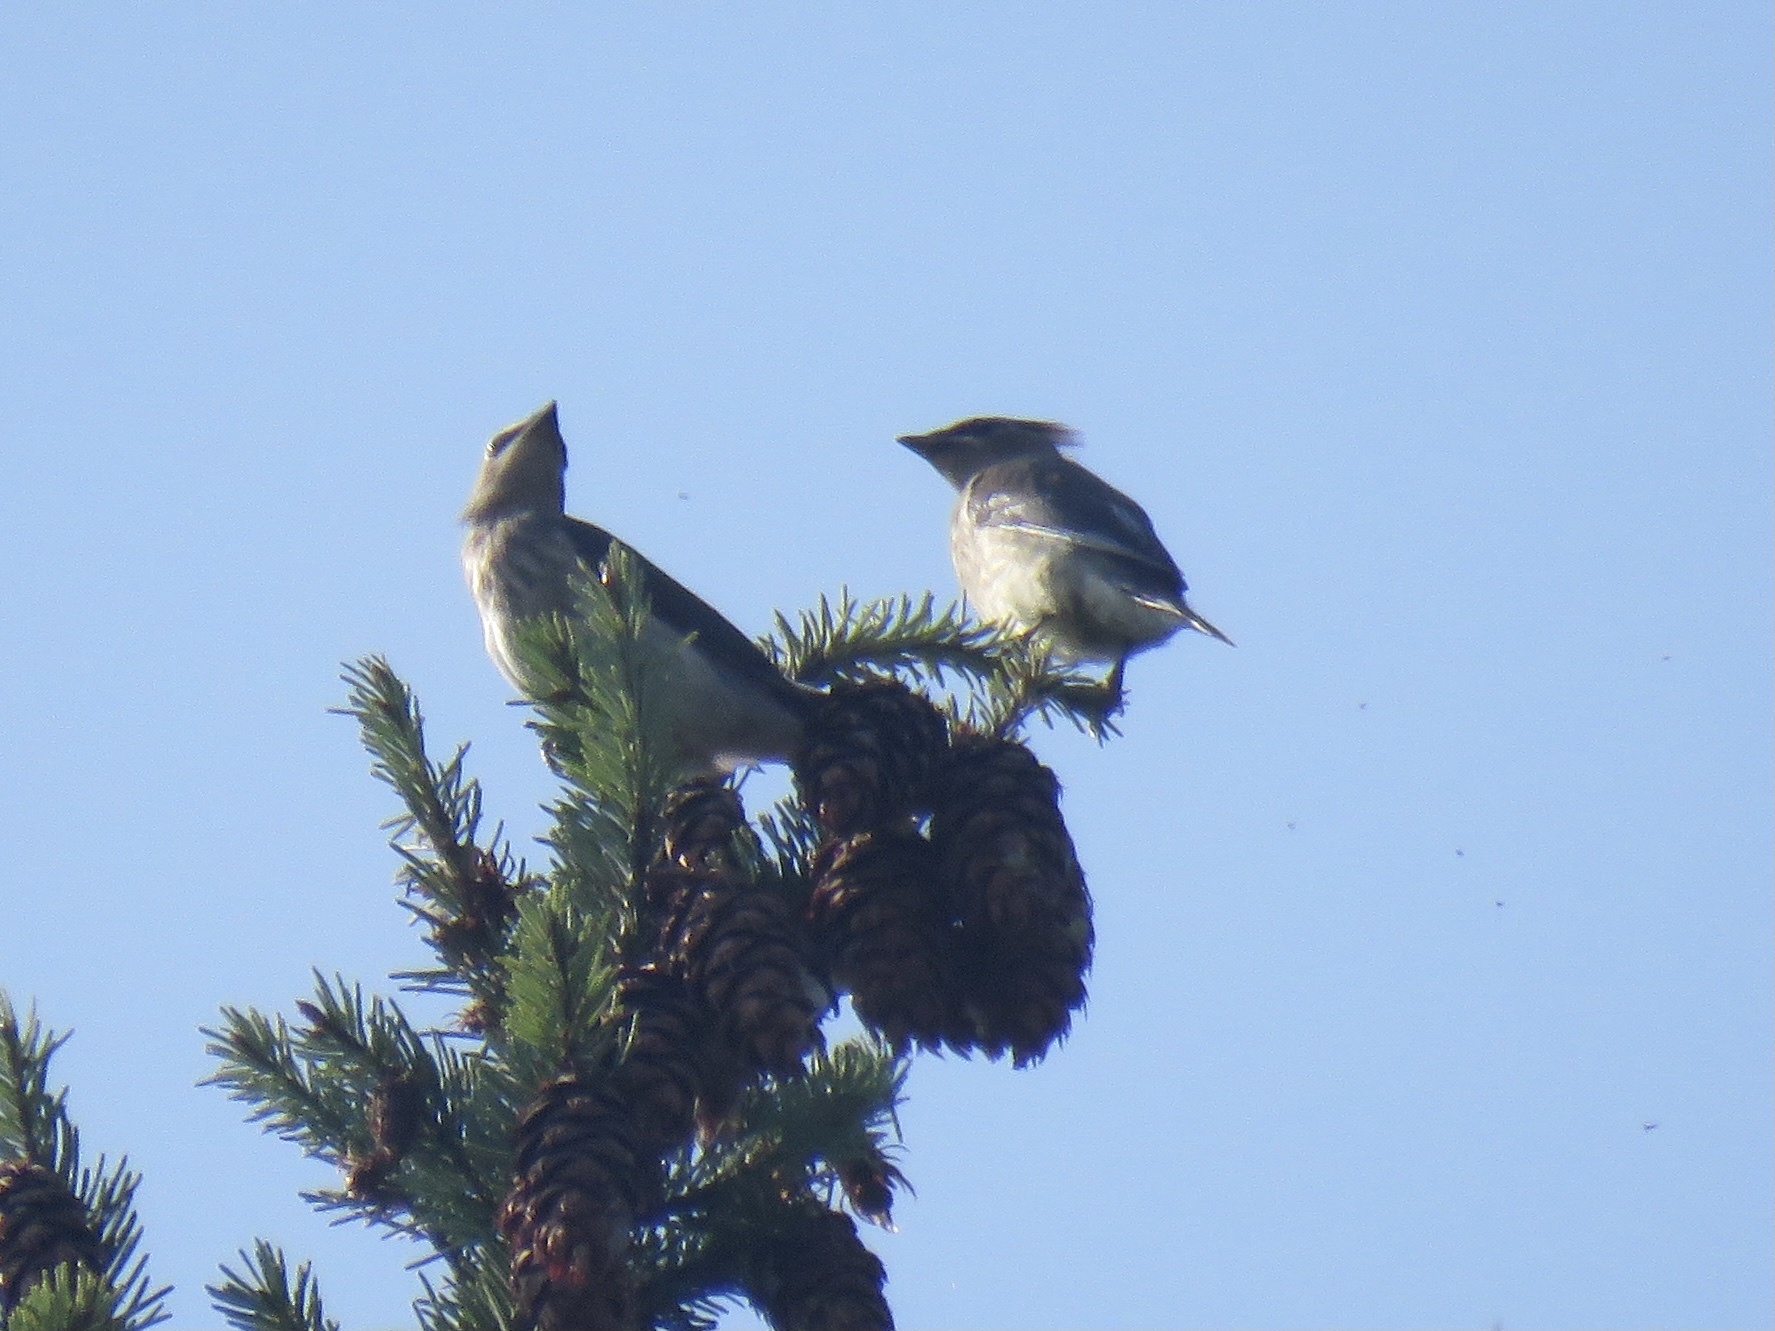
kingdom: Animalia
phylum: Chordata
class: Aves
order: Passeriformes
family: Bombycillidae
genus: Bombycilla
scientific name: Bombycilla cedrorum
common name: Cedar waxwing
